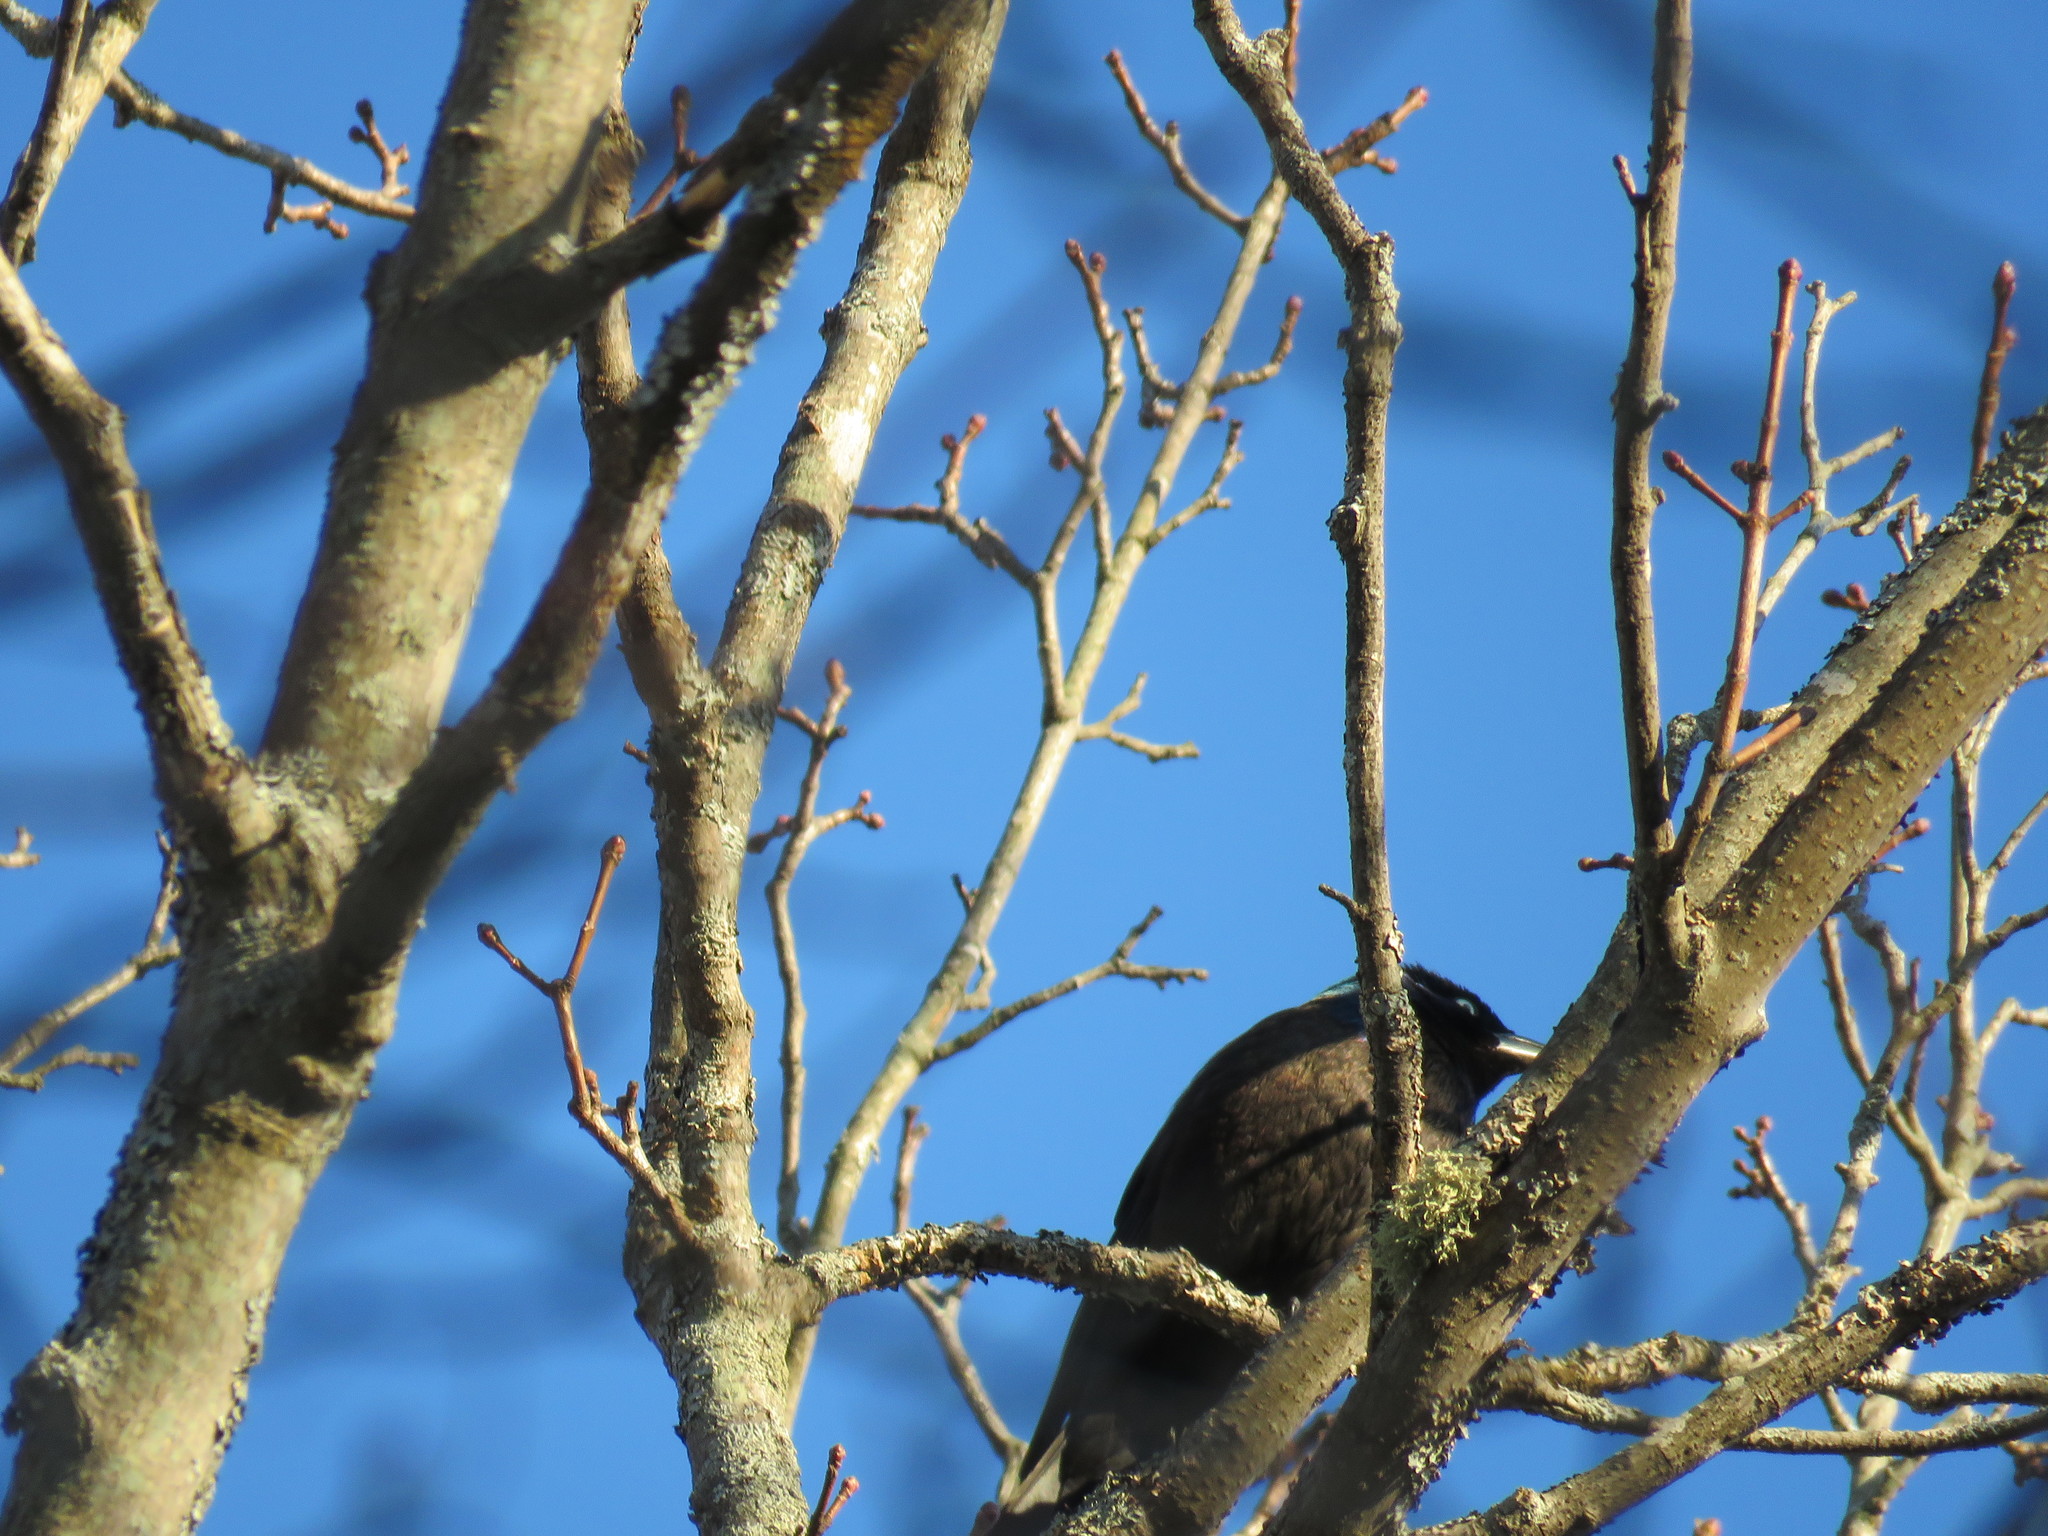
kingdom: Animalia
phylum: Chordata
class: Aves
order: Passeriformes
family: Icteridae
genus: Quiscalus
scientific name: Quiscalus quiscula
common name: Common grackle
